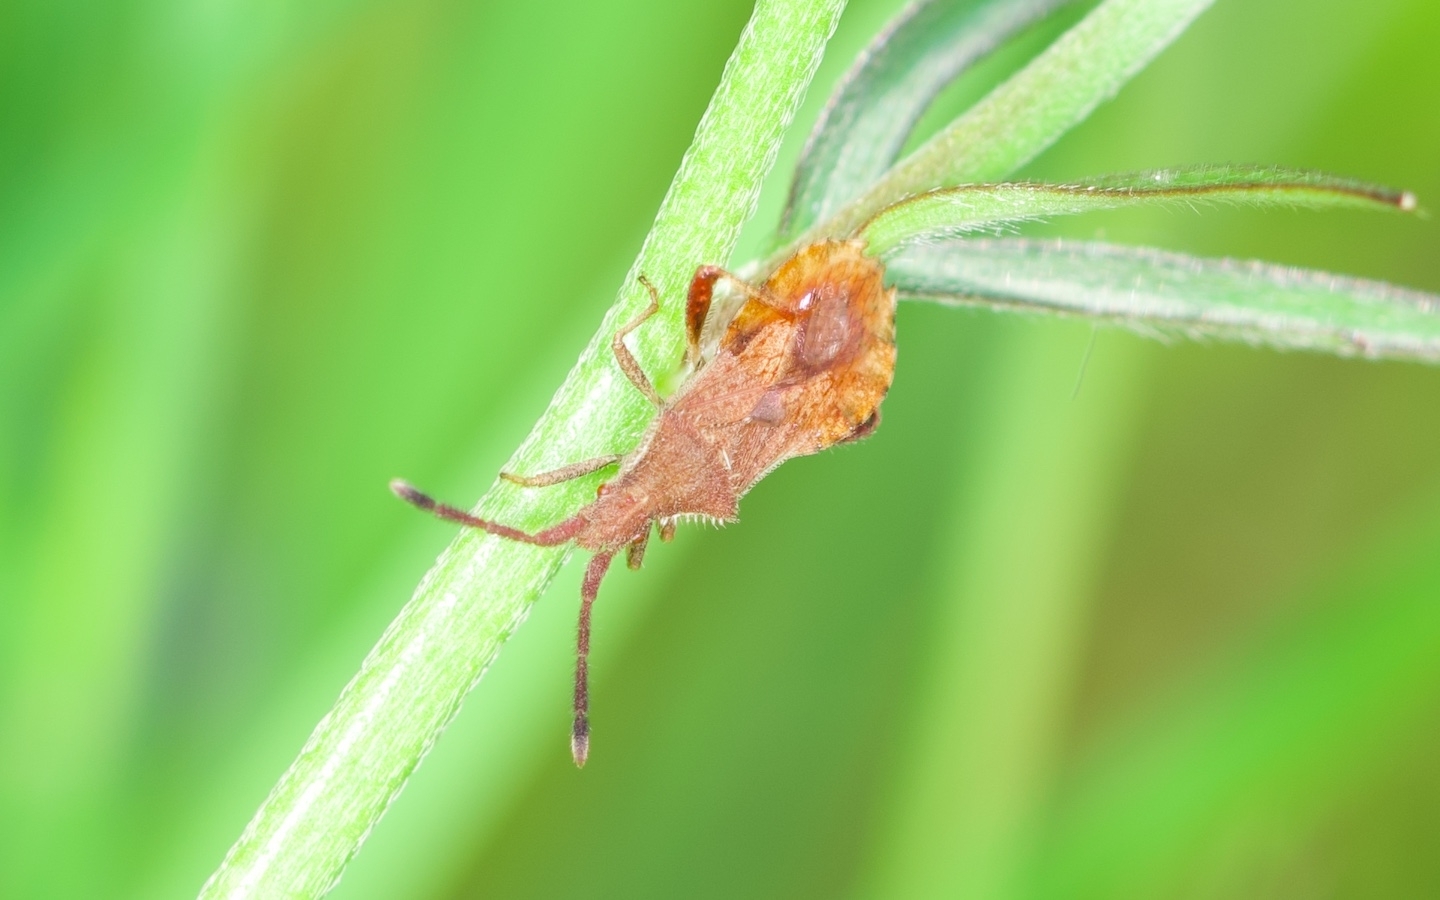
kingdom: Animalia
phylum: Arthropoda
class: Insecta
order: Hemiptera
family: Coreidae
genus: Coriomeris
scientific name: Coriomeris denticulatus
